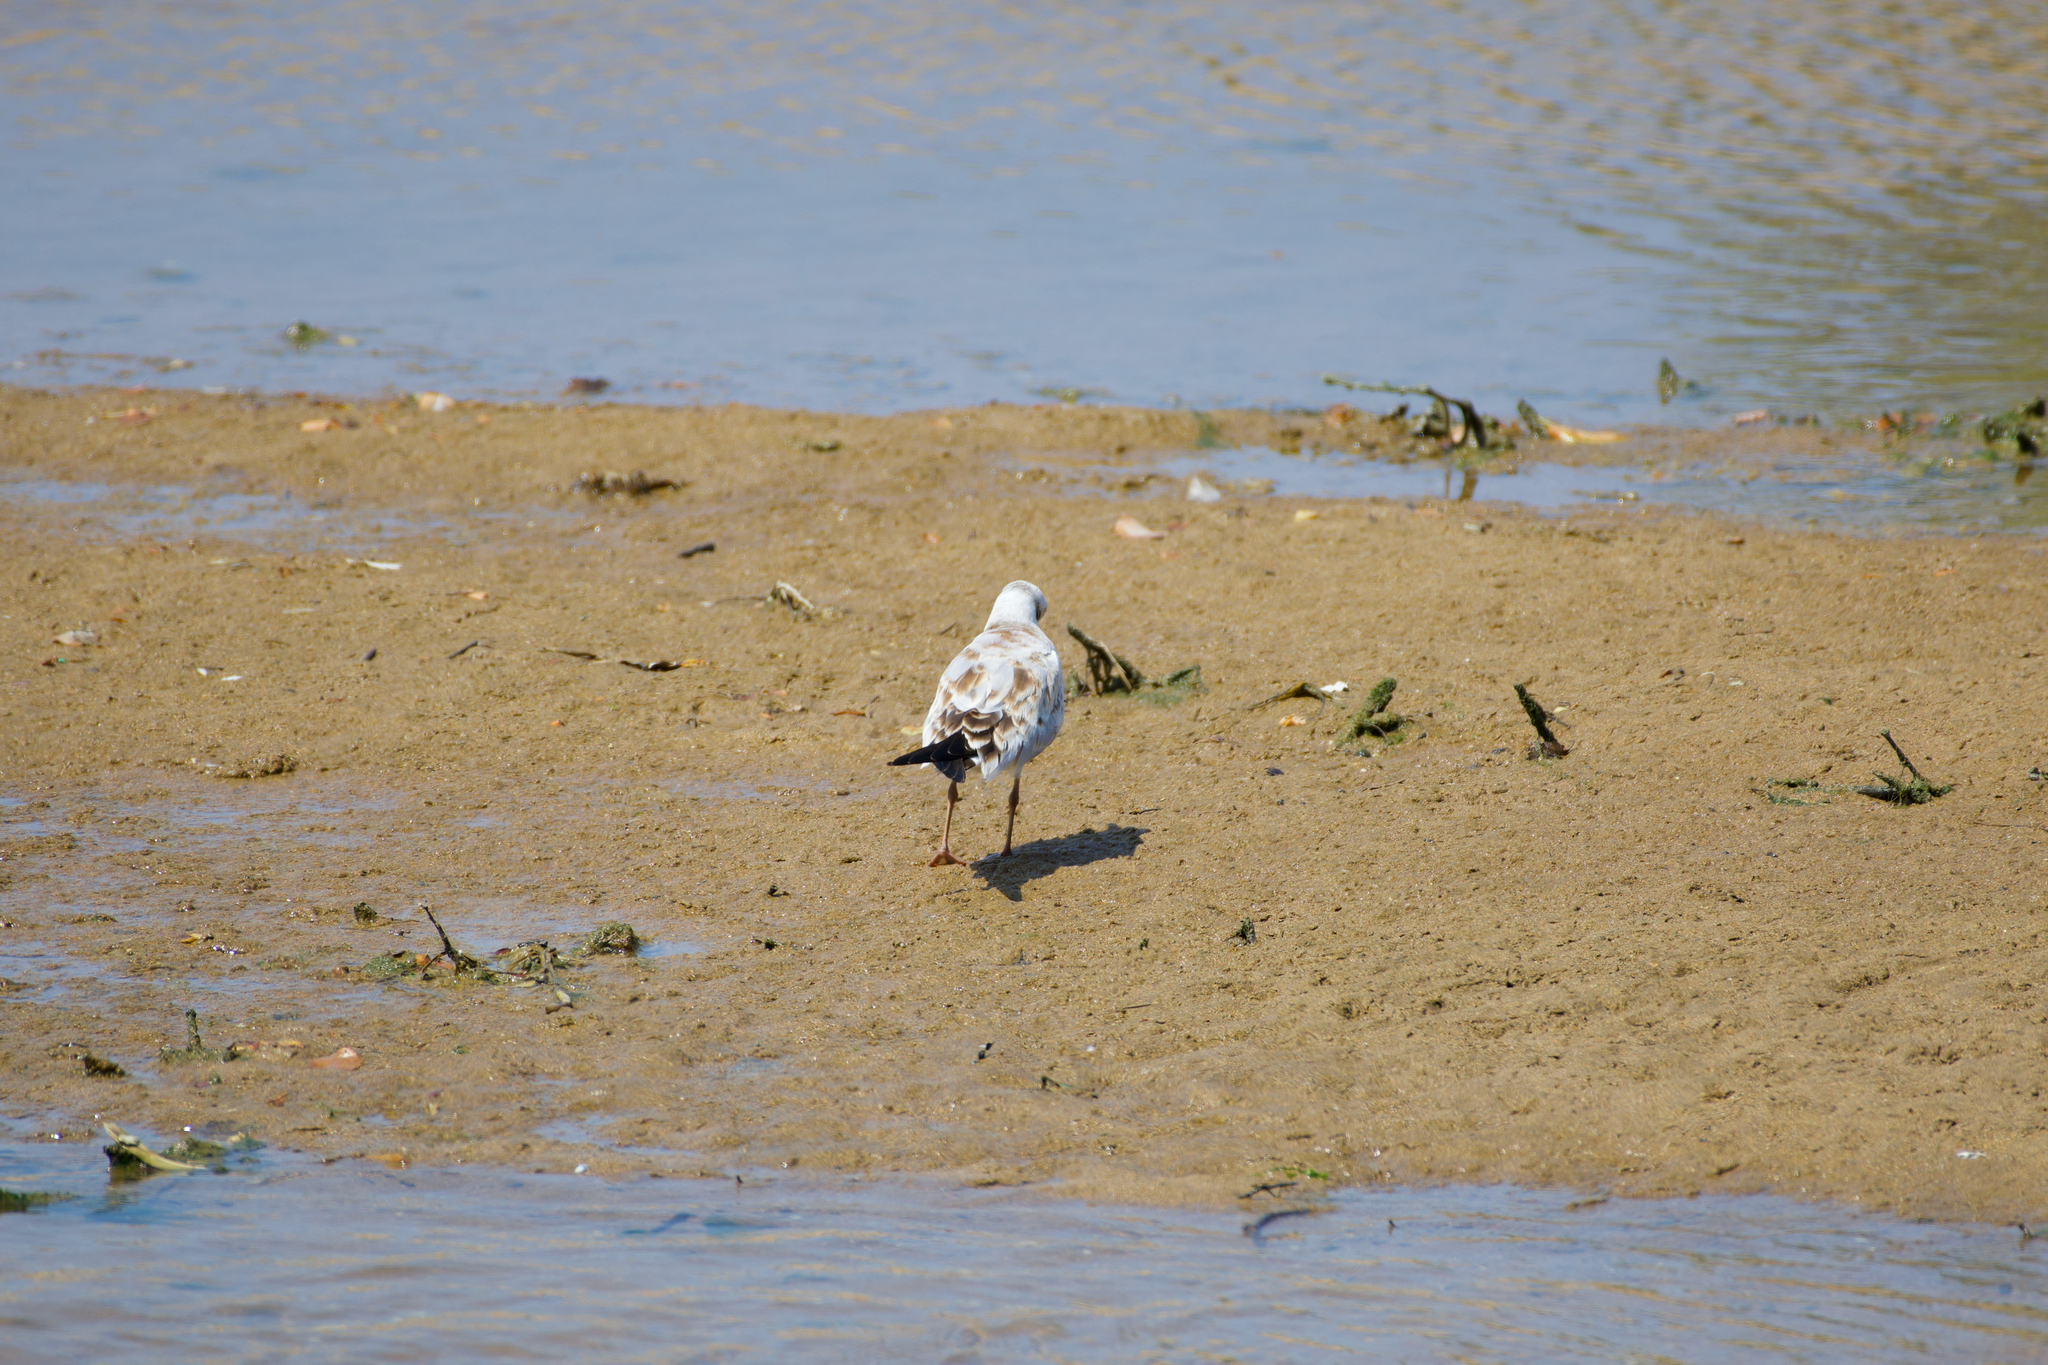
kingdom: Animalia
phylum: Chordata
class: Aves
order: Charadriiformes
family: Laridae
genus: Chroicocephalus
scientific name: Chroicocephalus ridibundus
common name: Black-headed gull
